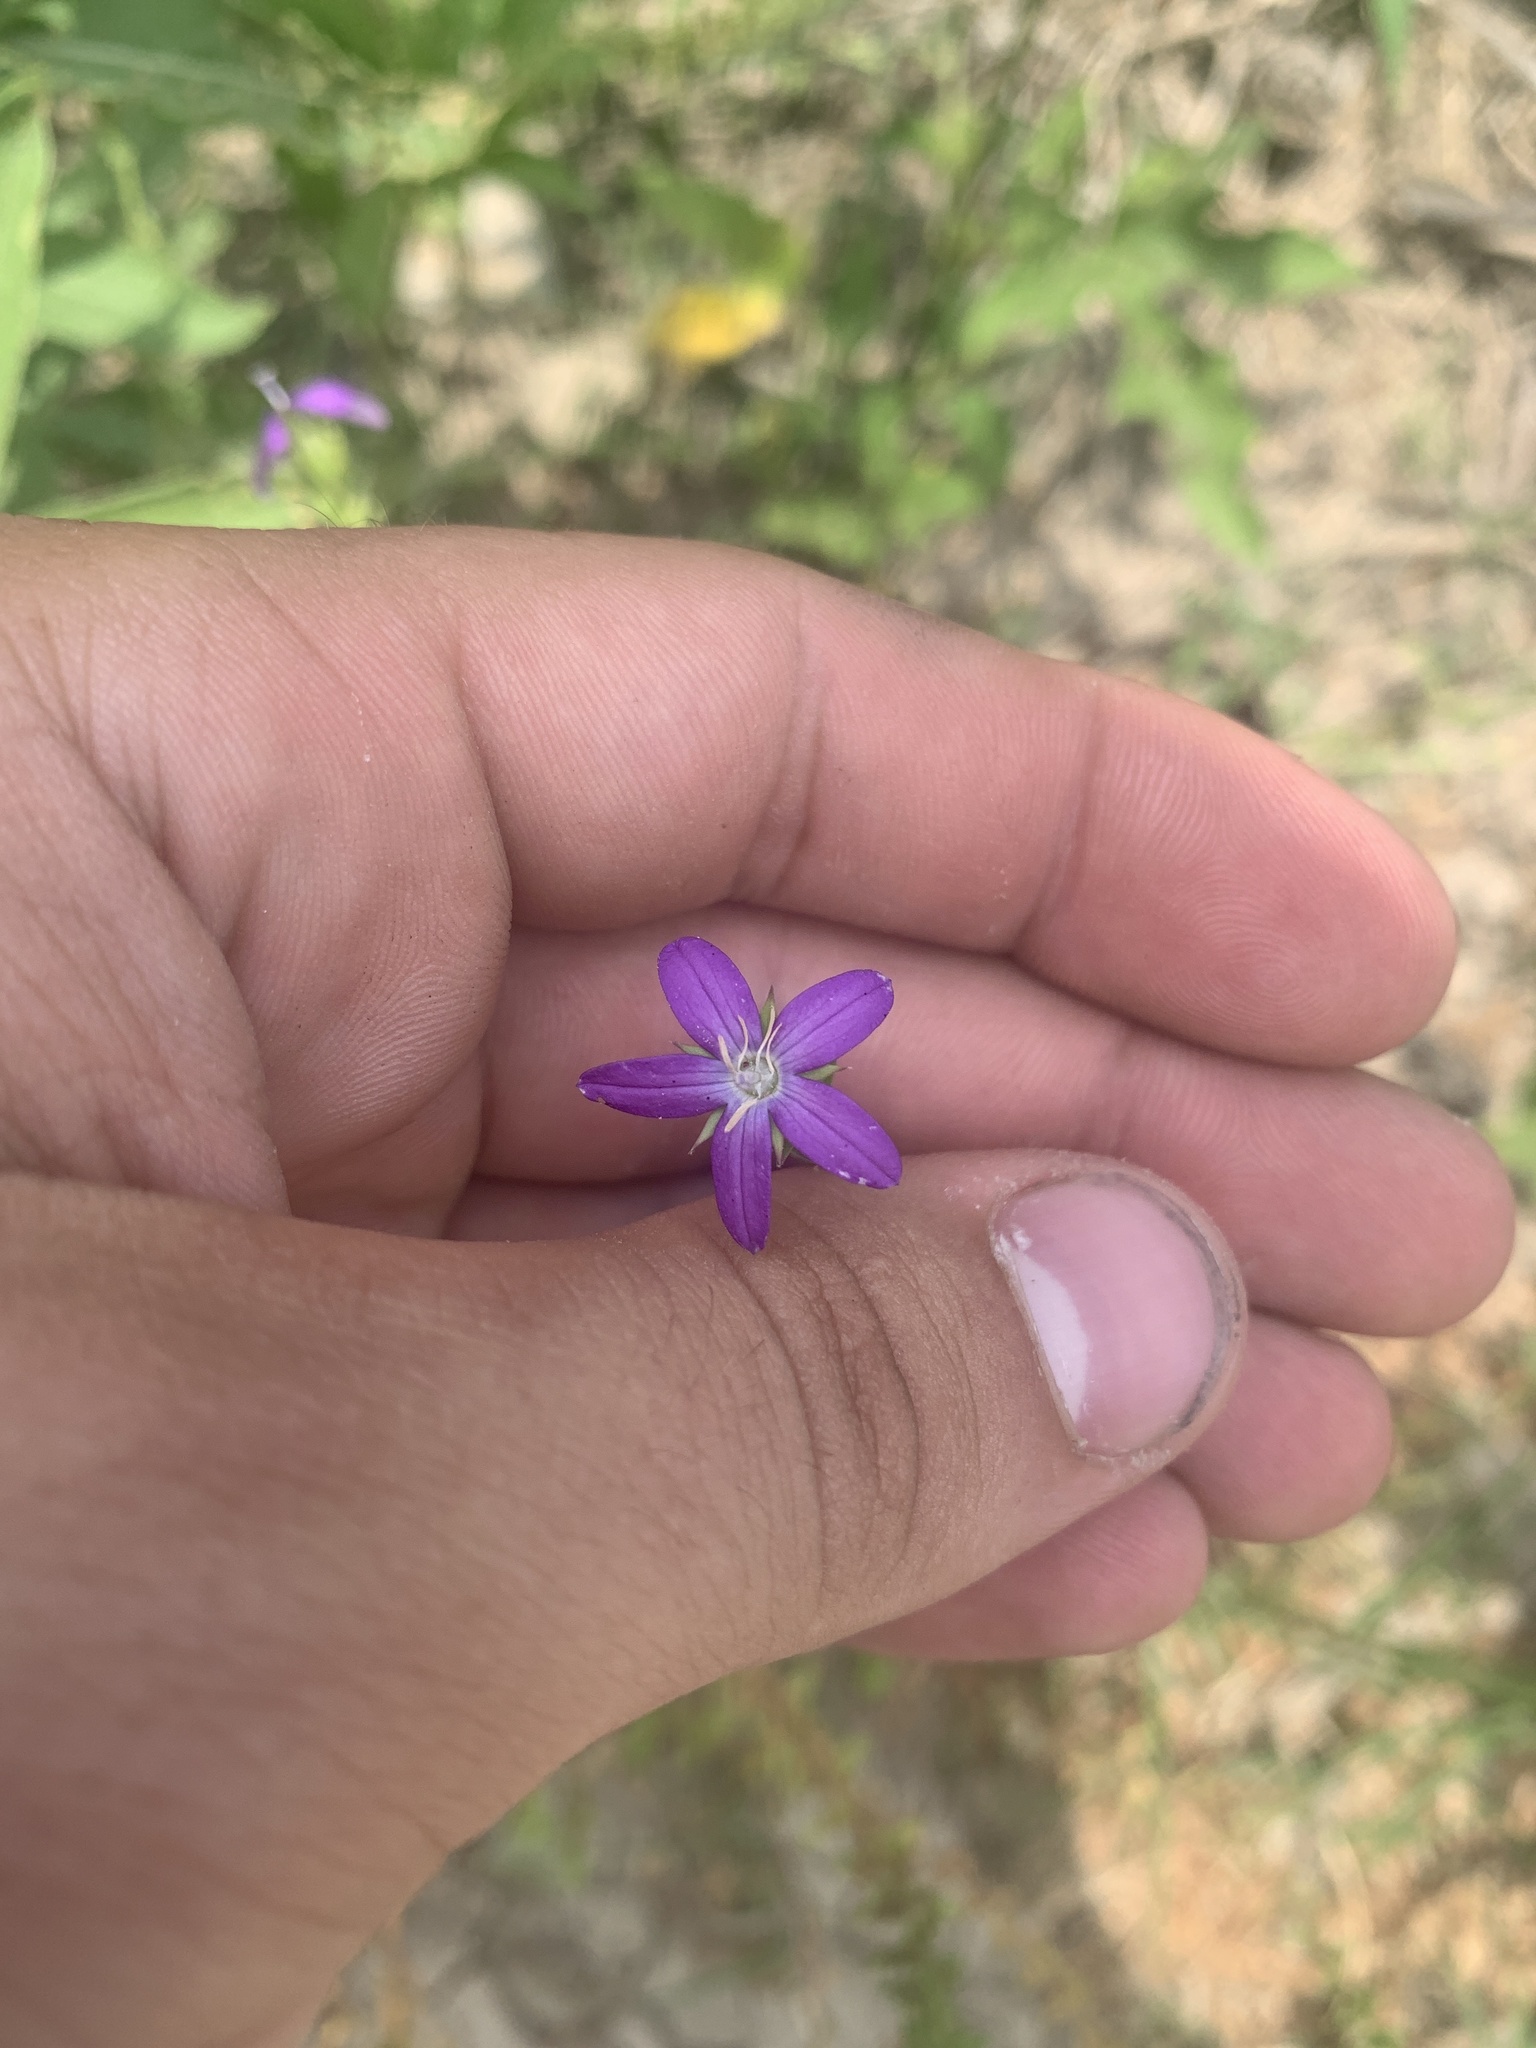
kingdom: Plantae
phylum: Tracheophyta
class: Magnoliopsida
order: Asterales
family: Campanulaceae
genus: Triodanis
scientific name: Triodanis lamprosperma
